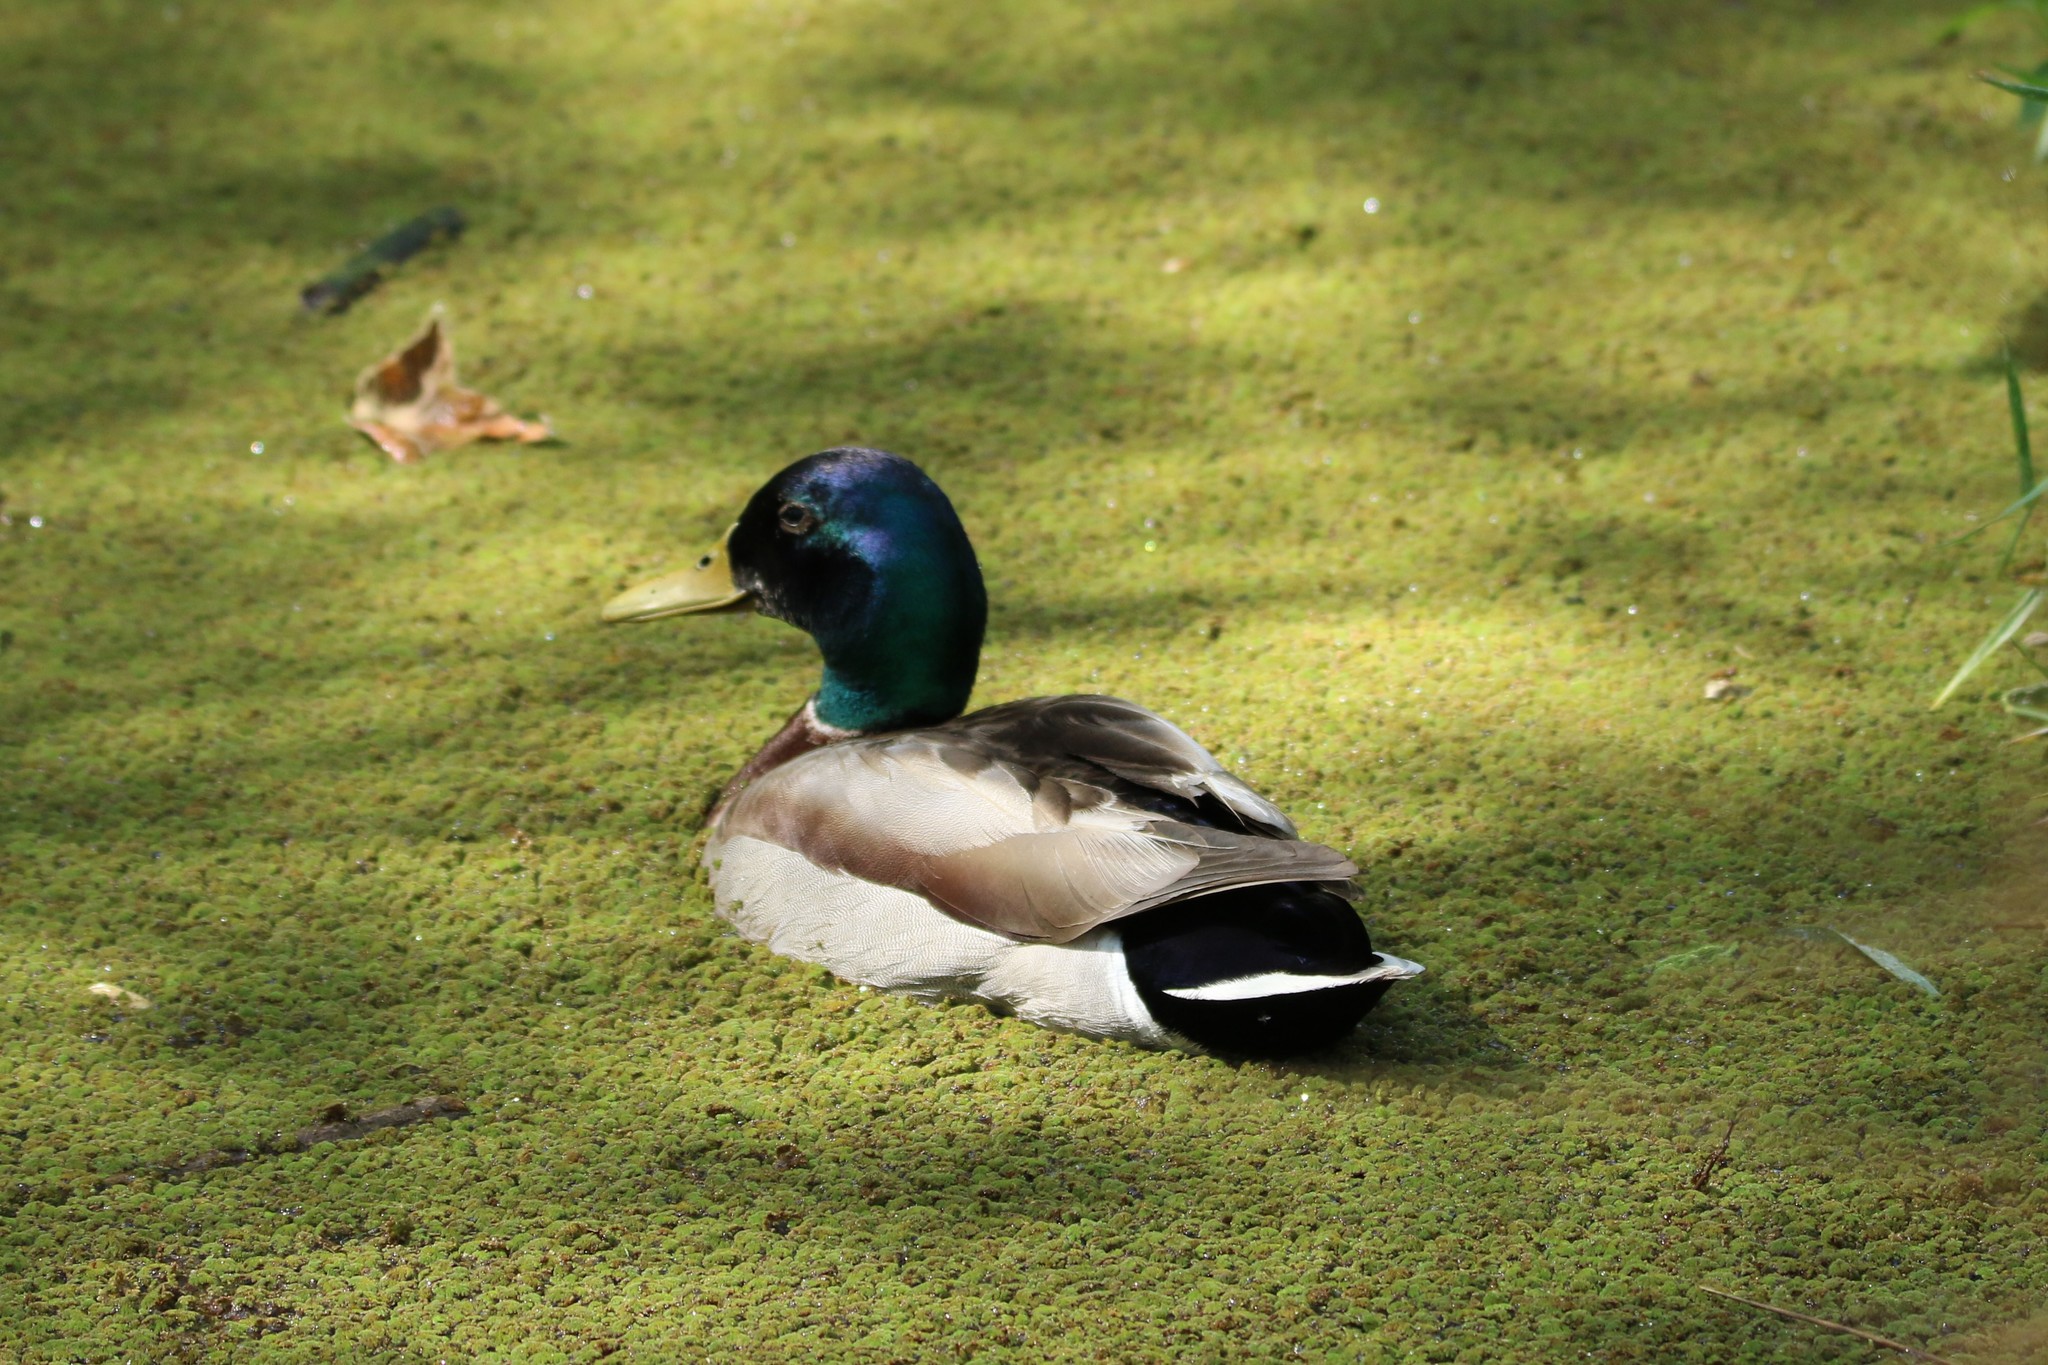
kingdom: Animalia
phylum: Chordata
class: Aves
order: Anseriformes
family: Anatidae
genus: Anas
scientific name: Anas platyrhynchos
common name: Mallard
